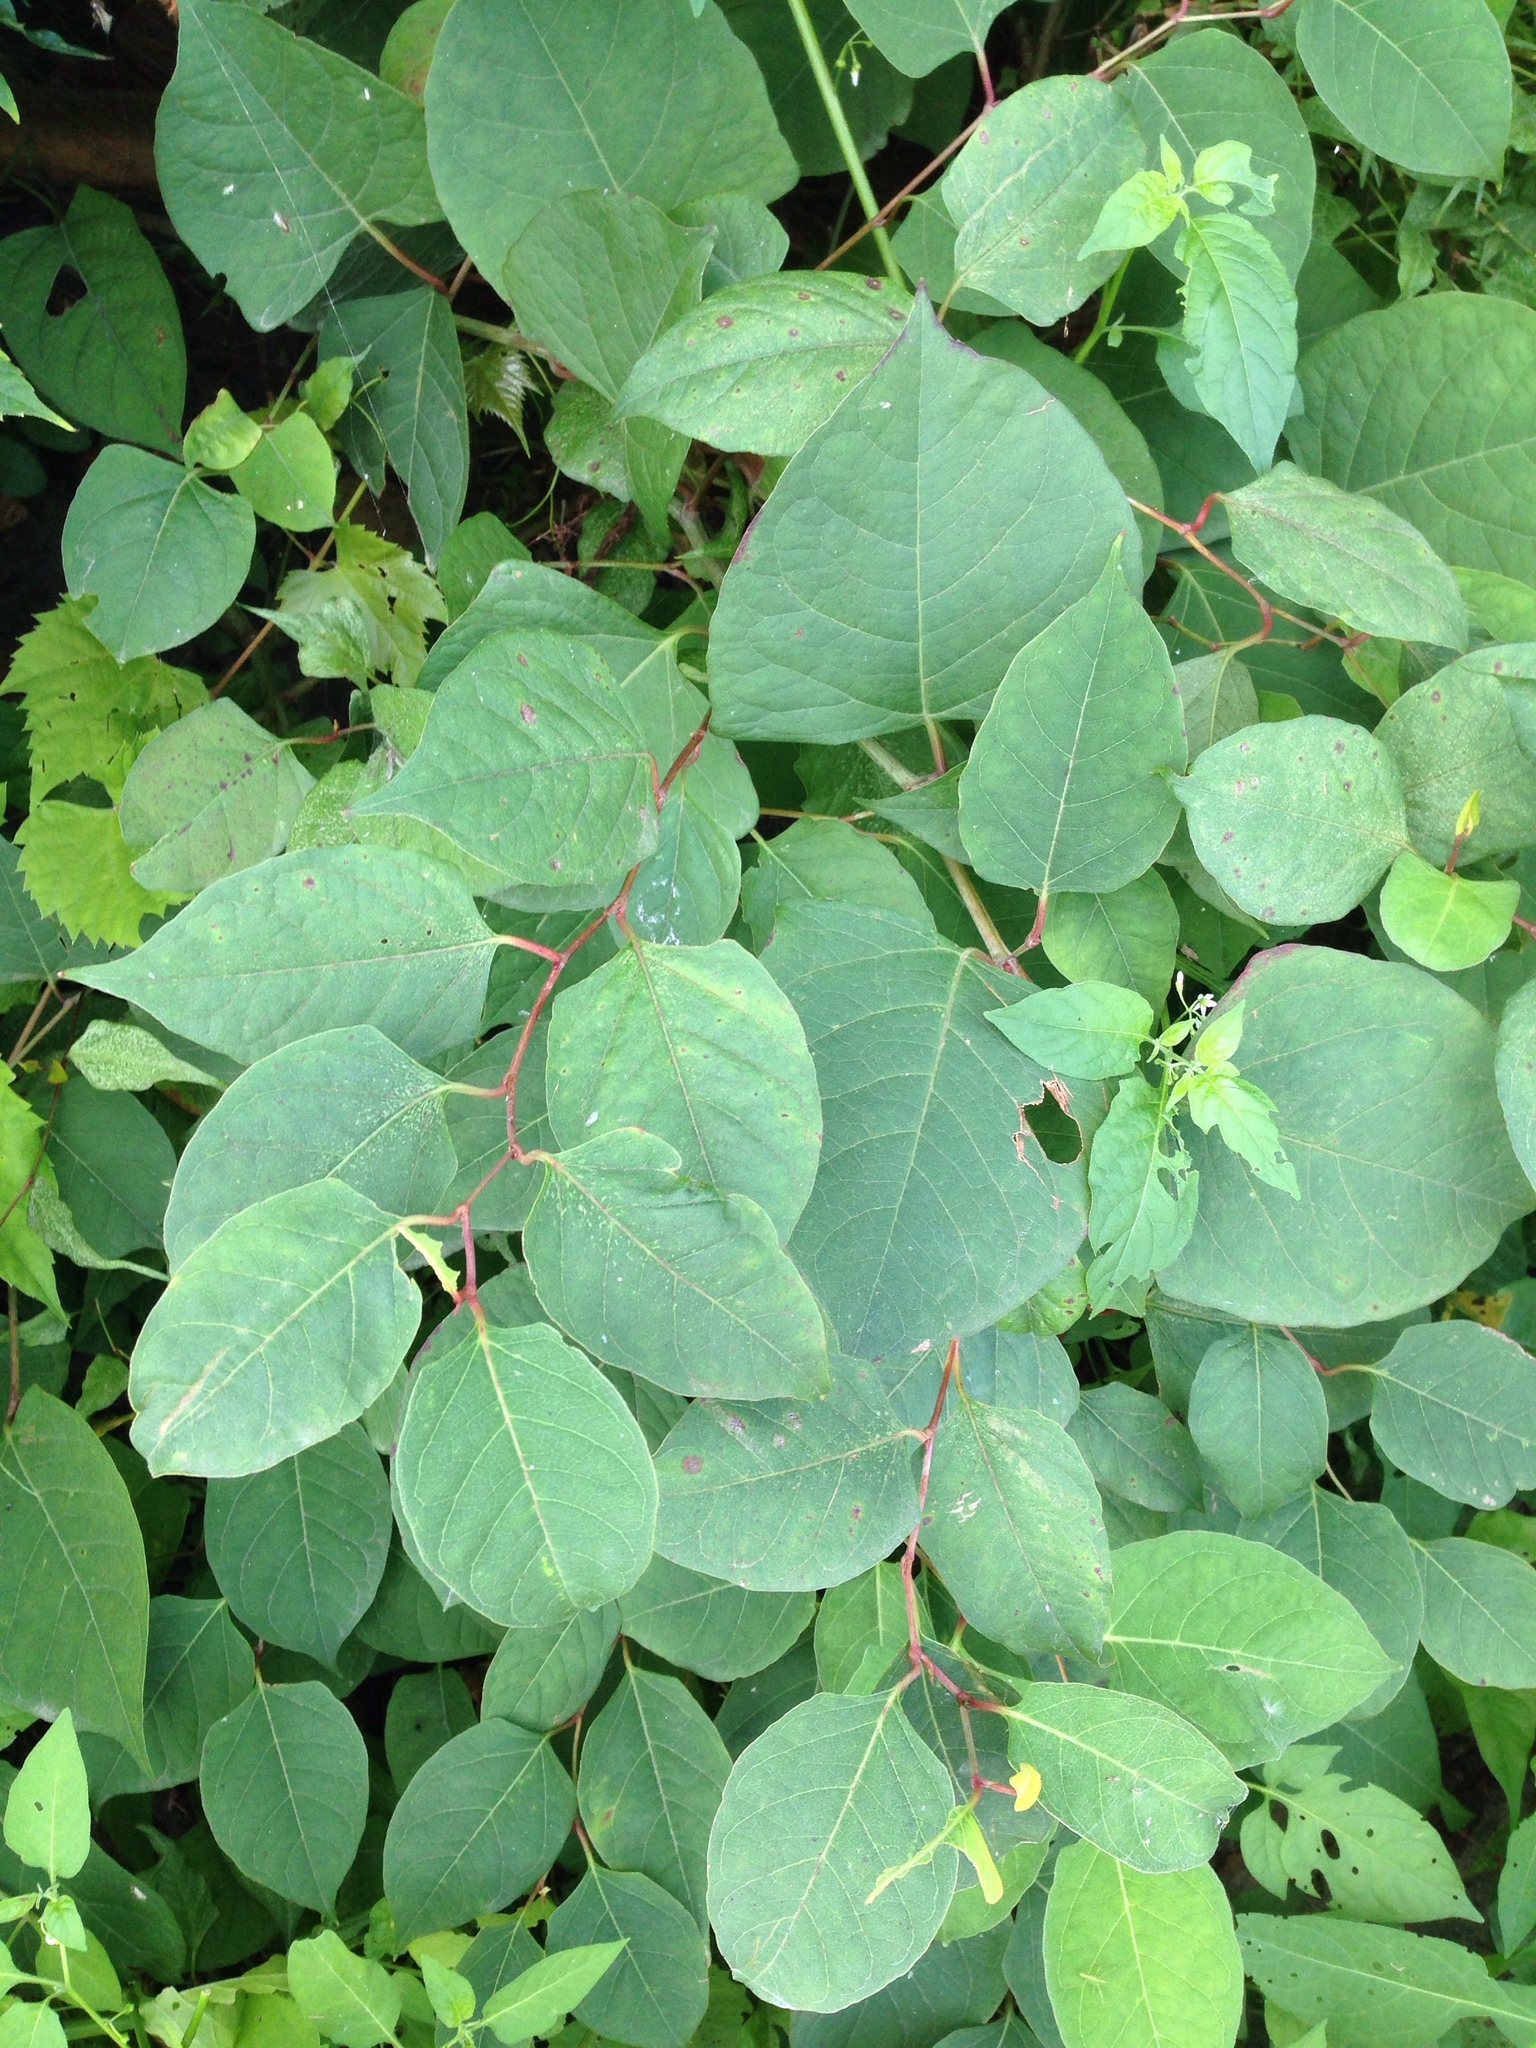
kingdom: Plantae
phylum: Tracheophyta
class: Magnoliopsida
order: Caryophyllales
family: Polygonaceae
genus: Reynoutria
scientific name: Reynoutria japonica
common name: Japanese knotweed
